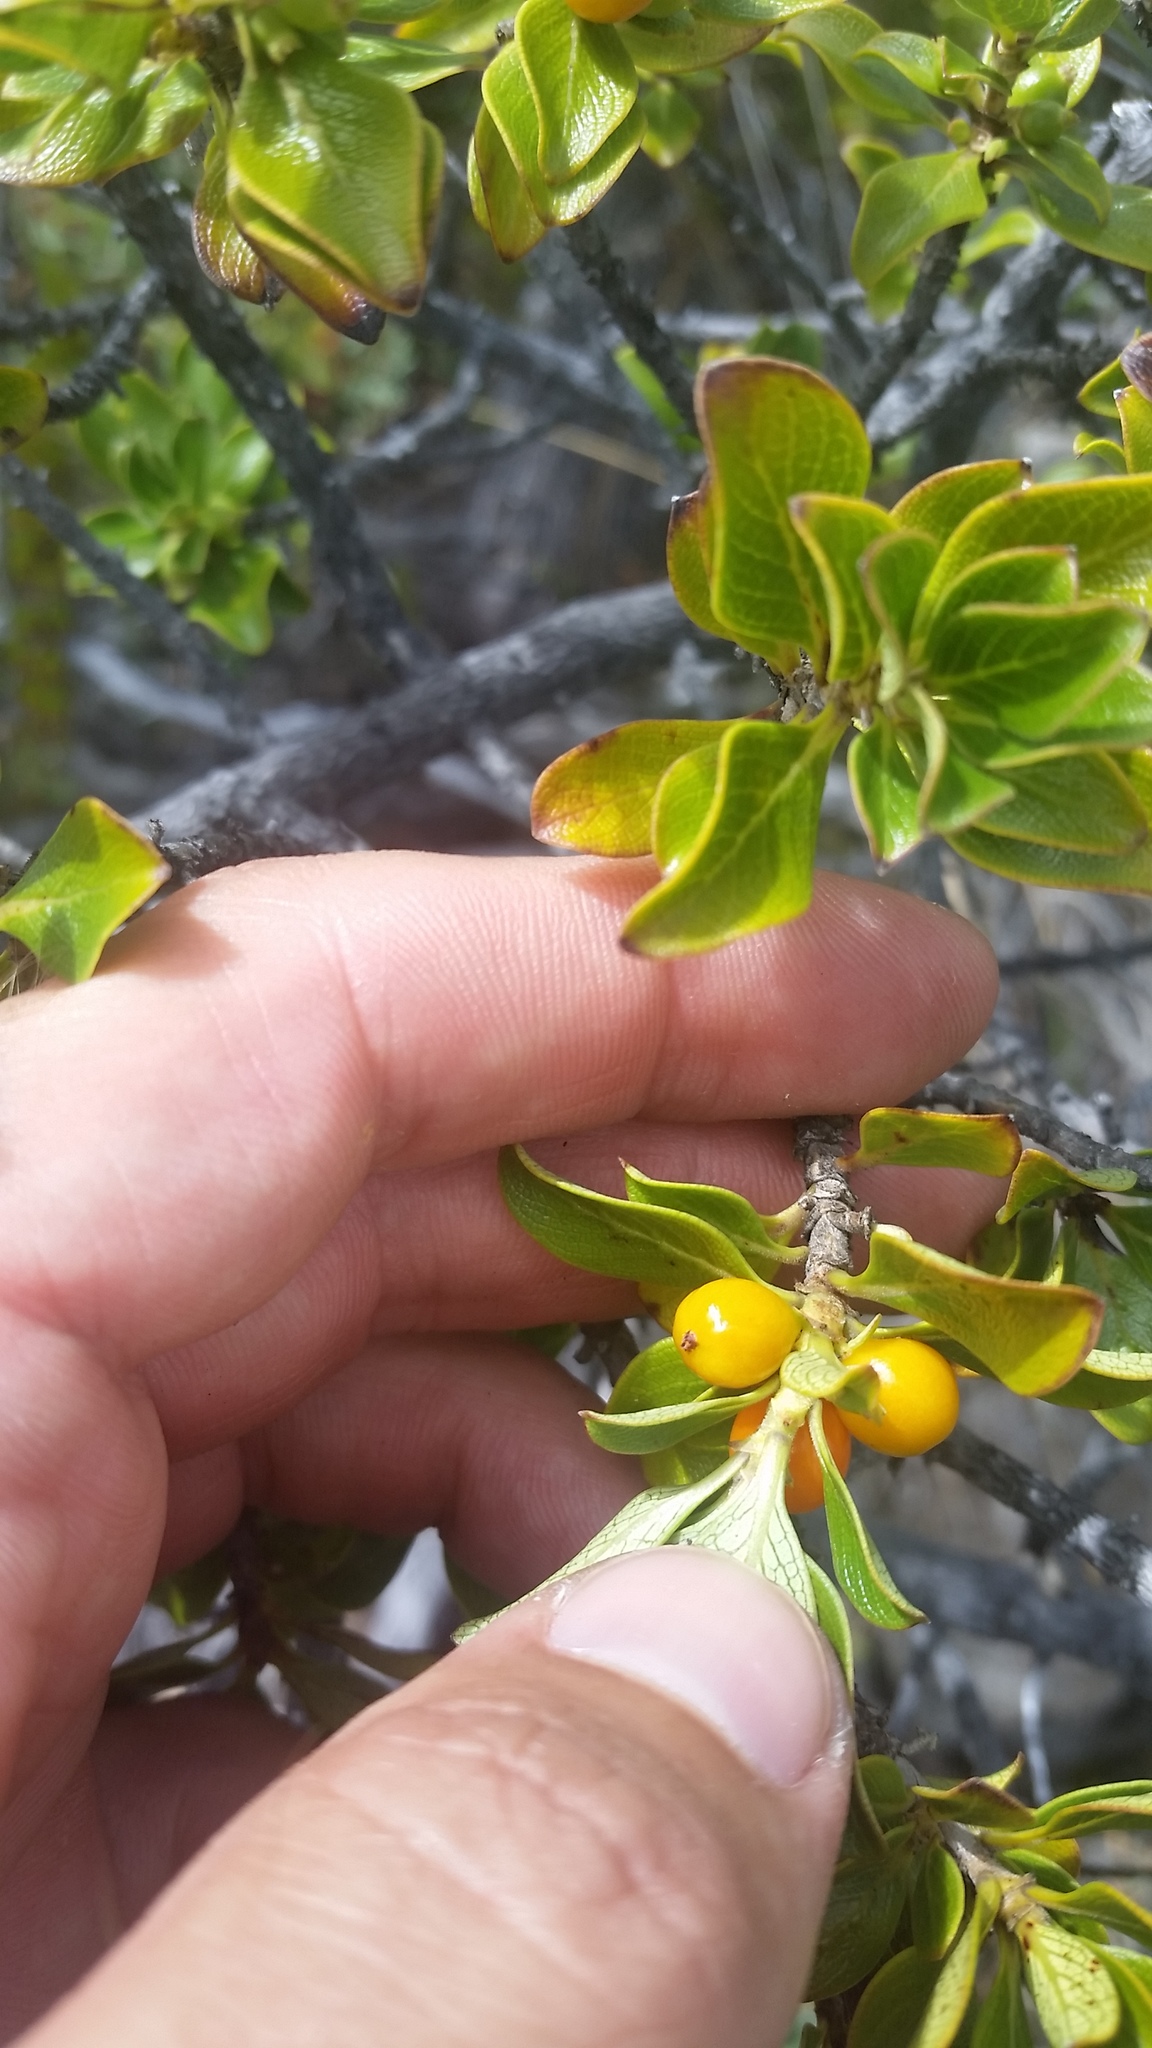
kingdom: Plantae
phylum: Tracheophyta
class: Magnoliopsida
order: Gentianales
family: Rubiaceae
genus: Coprosma
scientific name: Coprosma montana
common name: Alpine mirror plant
